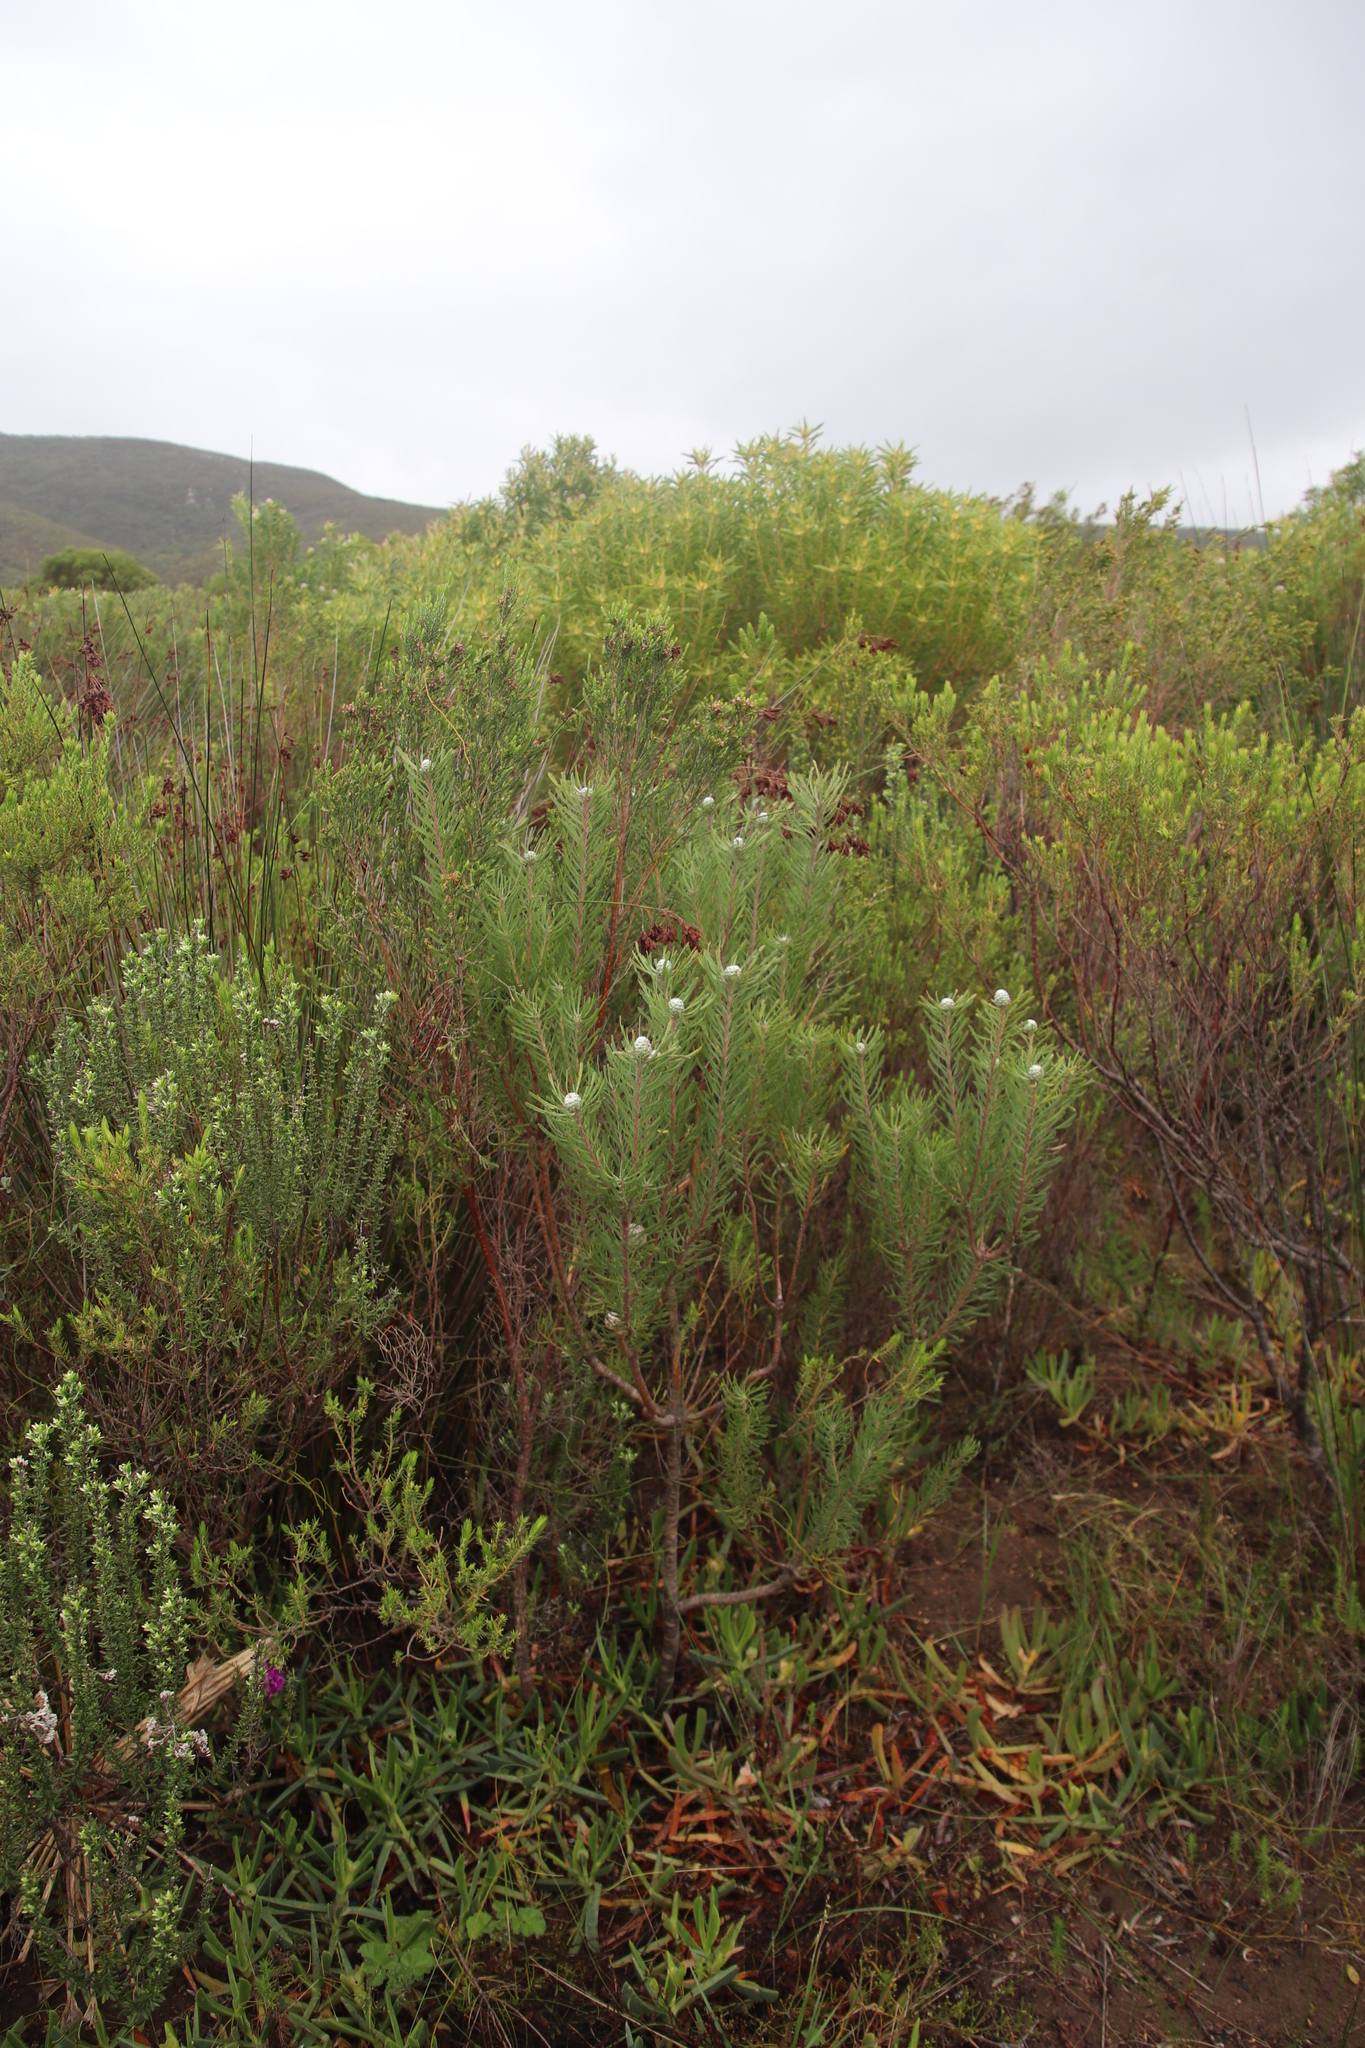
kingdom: Plantae
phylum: Tracheophyta
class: Magnoliopsida
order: Proteales
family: Proteaceae
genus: Leucadendron
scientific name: Leucadendron galpinii
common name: Hairless conebush
